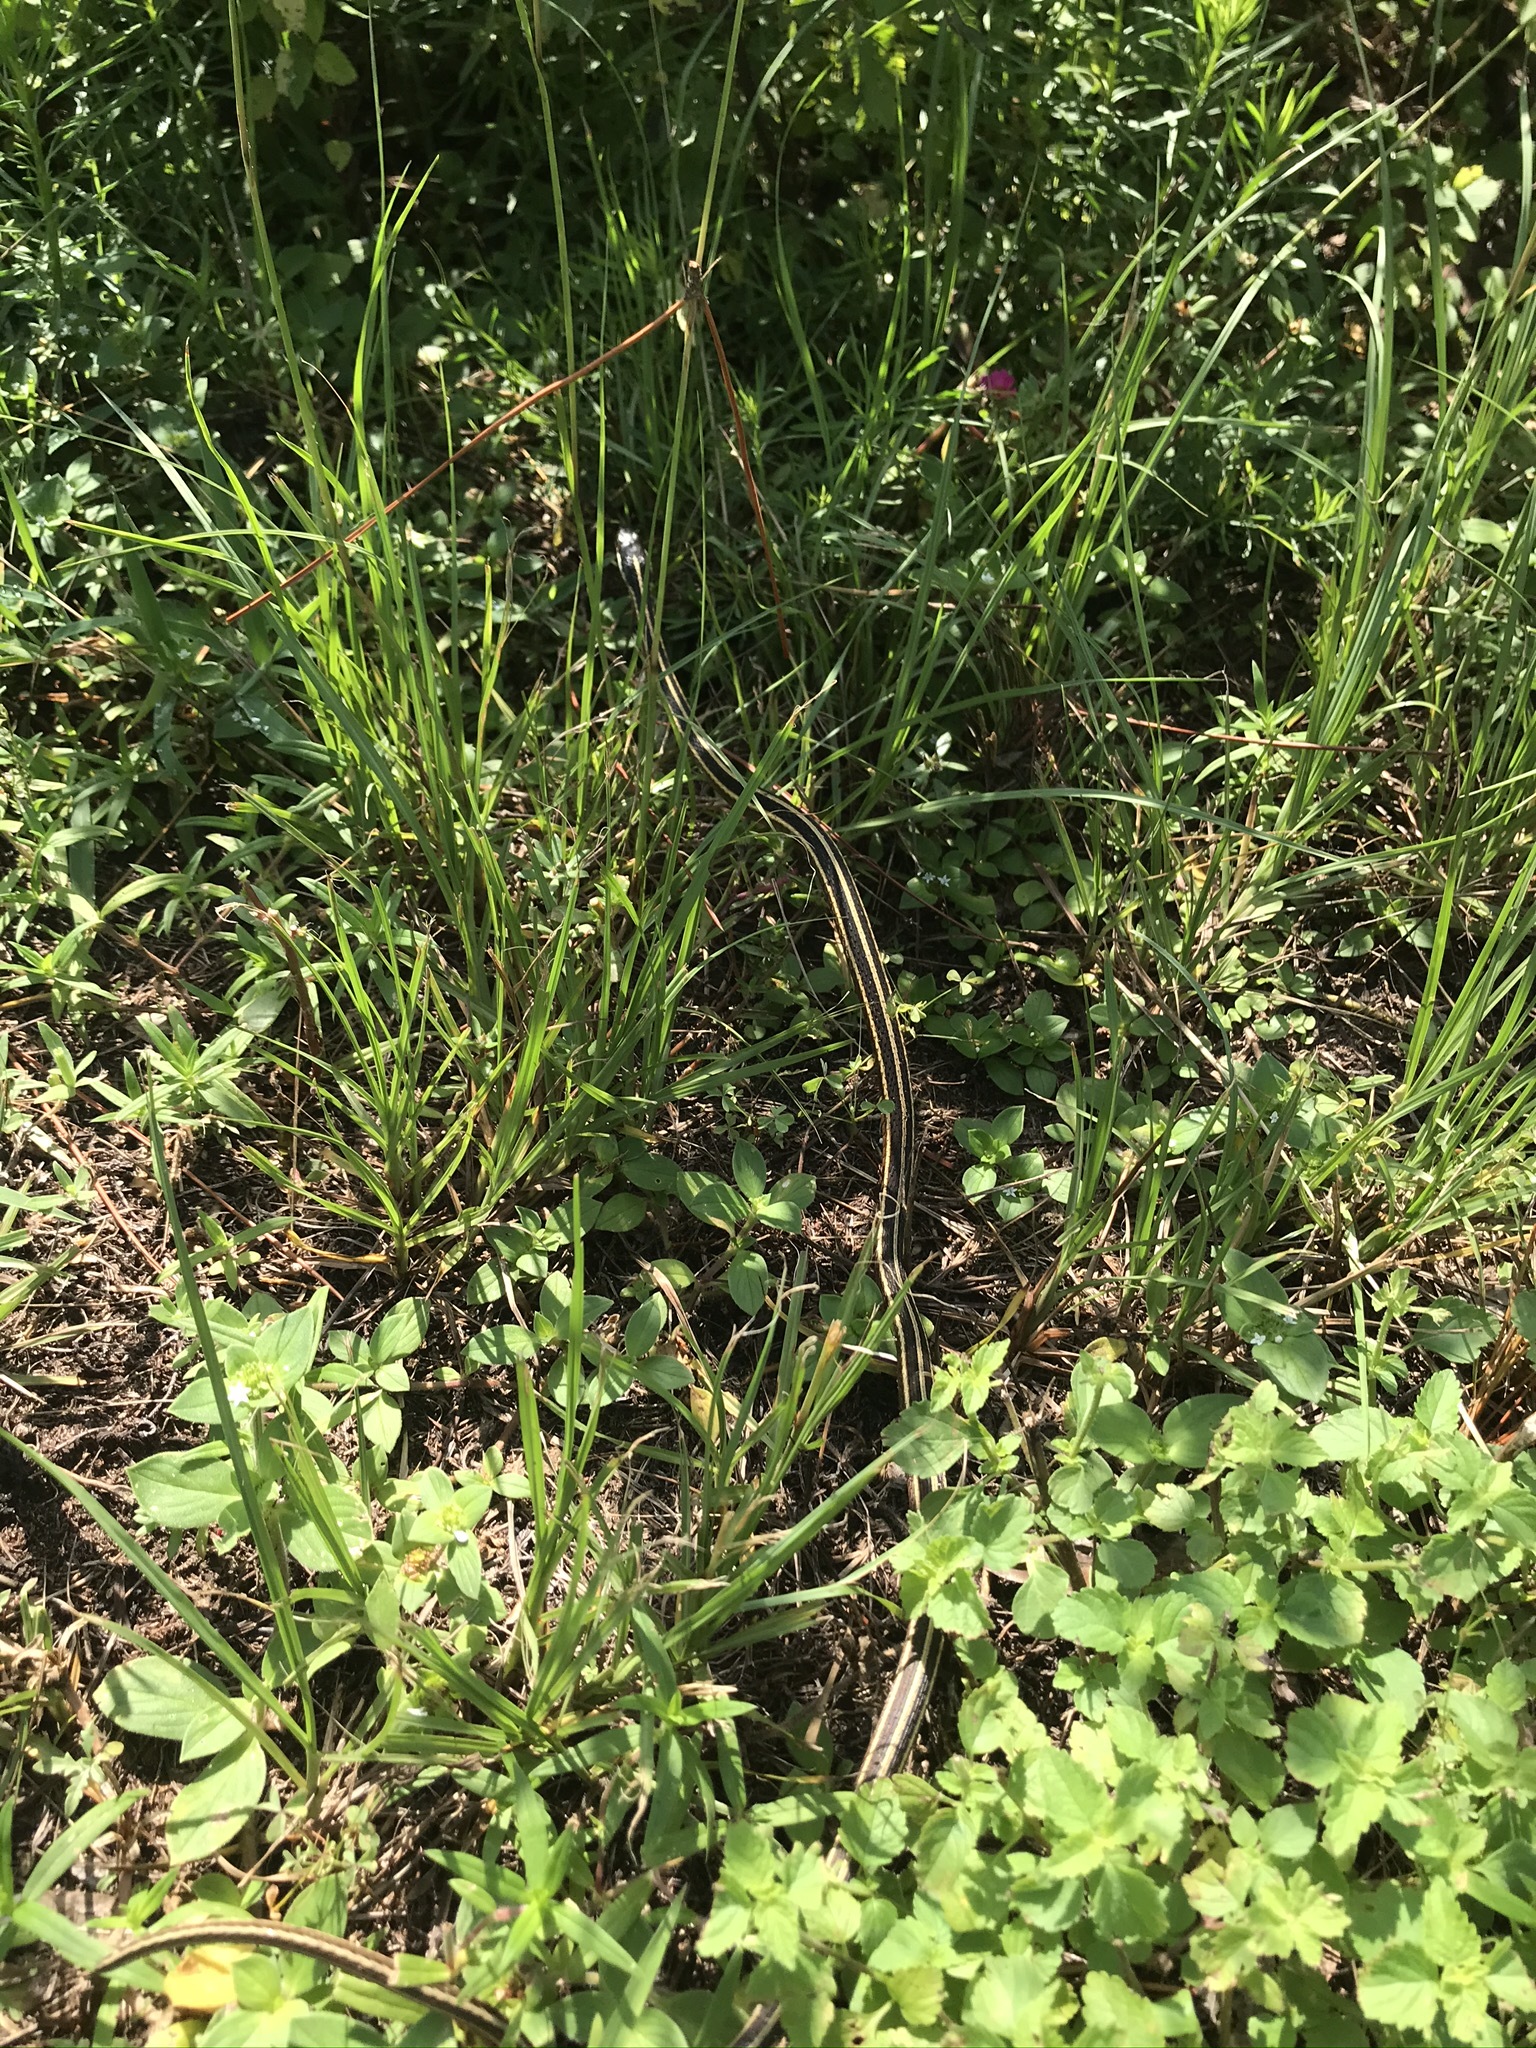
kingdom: Animalia
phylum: Chordata
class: Squamata
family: Colubridae
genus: Thamnophis
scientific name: Thamnophis saurita
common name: Eastern ribbonsnake
